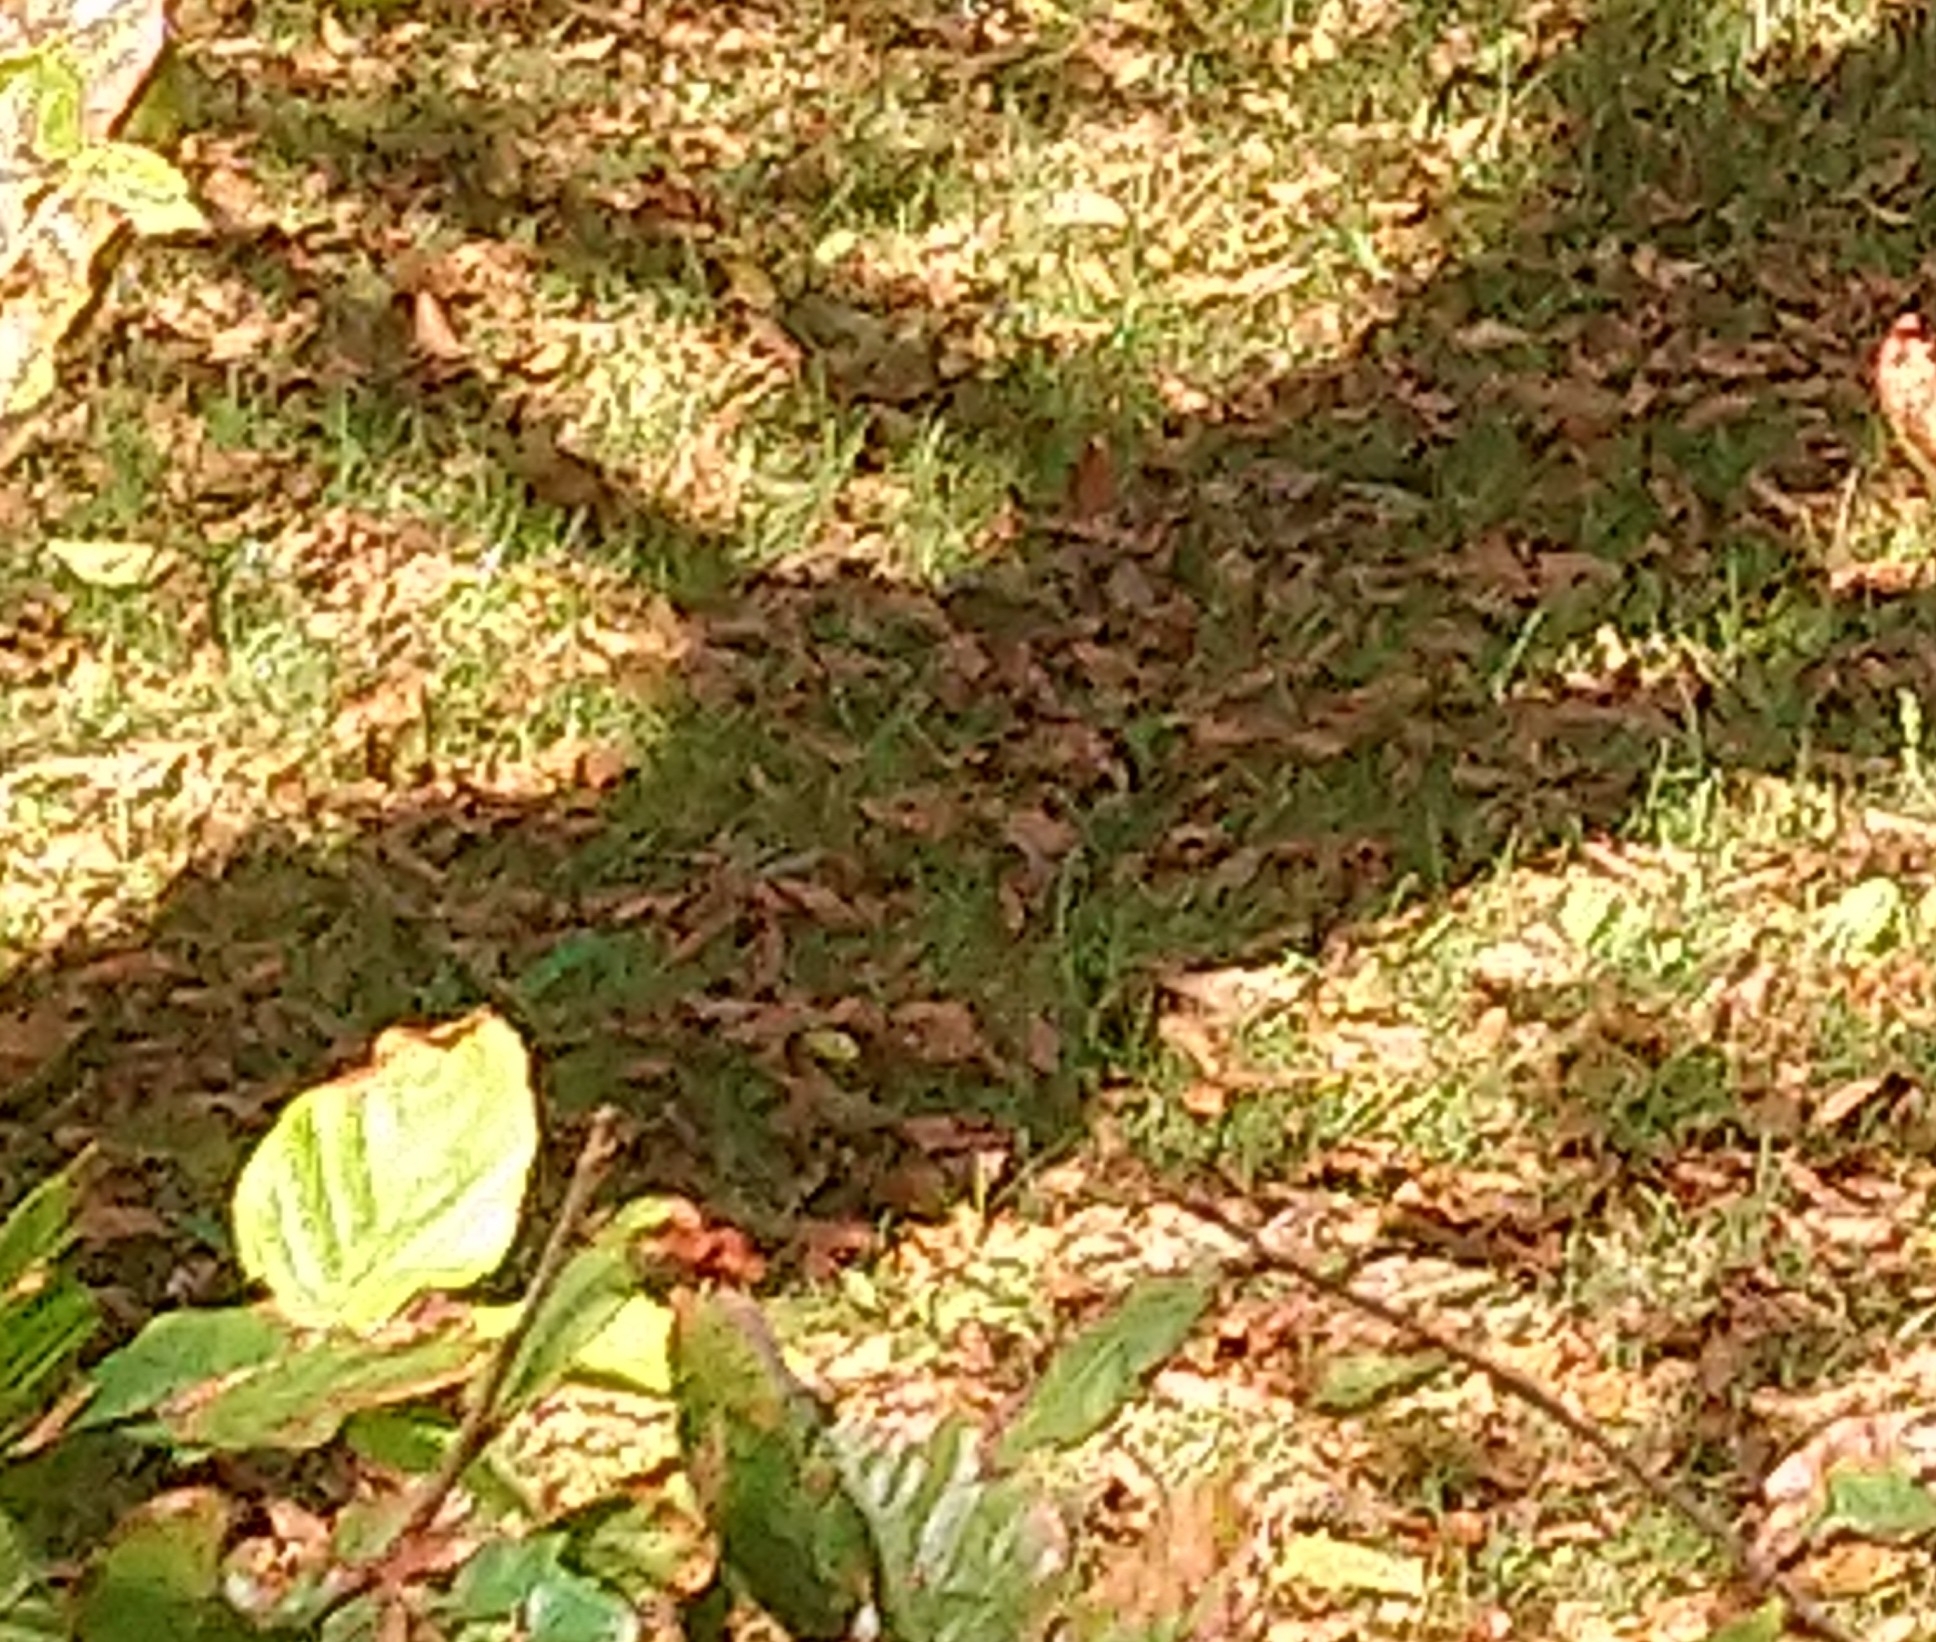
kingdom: Animalia
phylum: Chordata
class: Mammalia
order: Lagomorpha
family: Leporidae
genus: Lepus
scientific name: Lepus europaeus
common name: European hare
